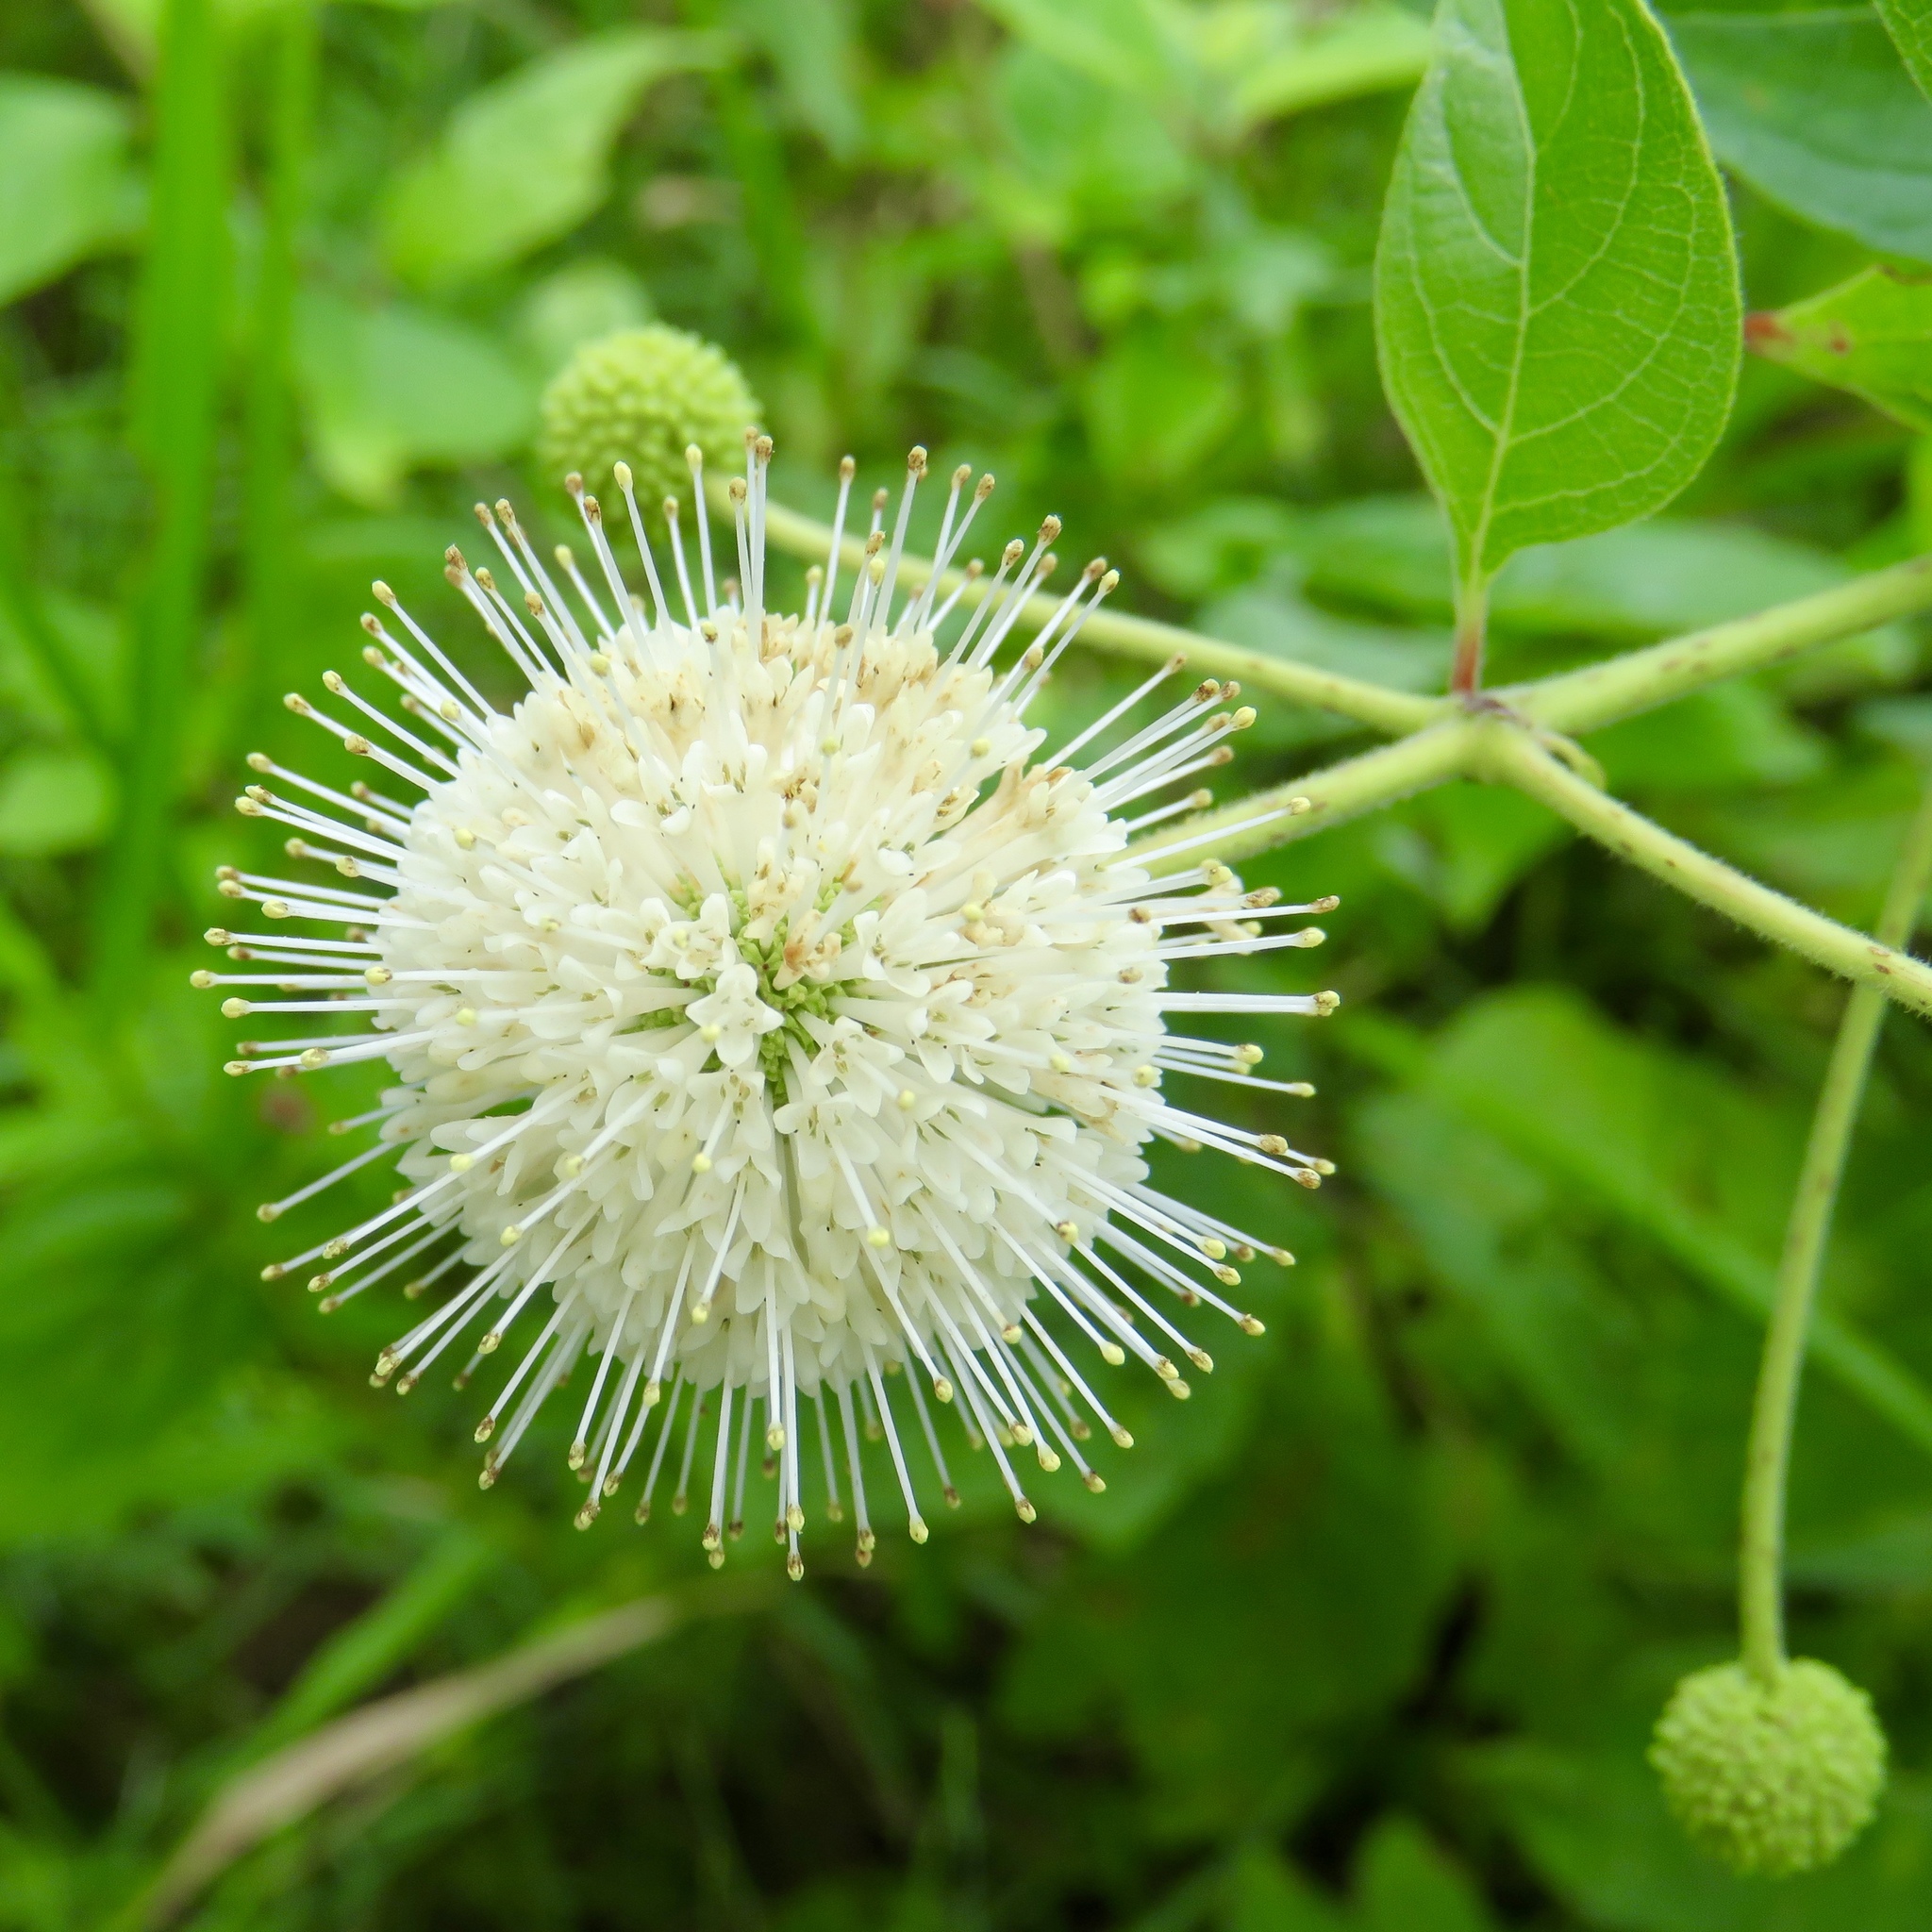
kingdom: Plantae
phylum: Tracheophyta
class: Magnoliopsida
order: Gentianales
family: Rubiaceae
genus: Cephalanthus
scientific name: Cephalanthus occidentalis
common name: Button-willow
